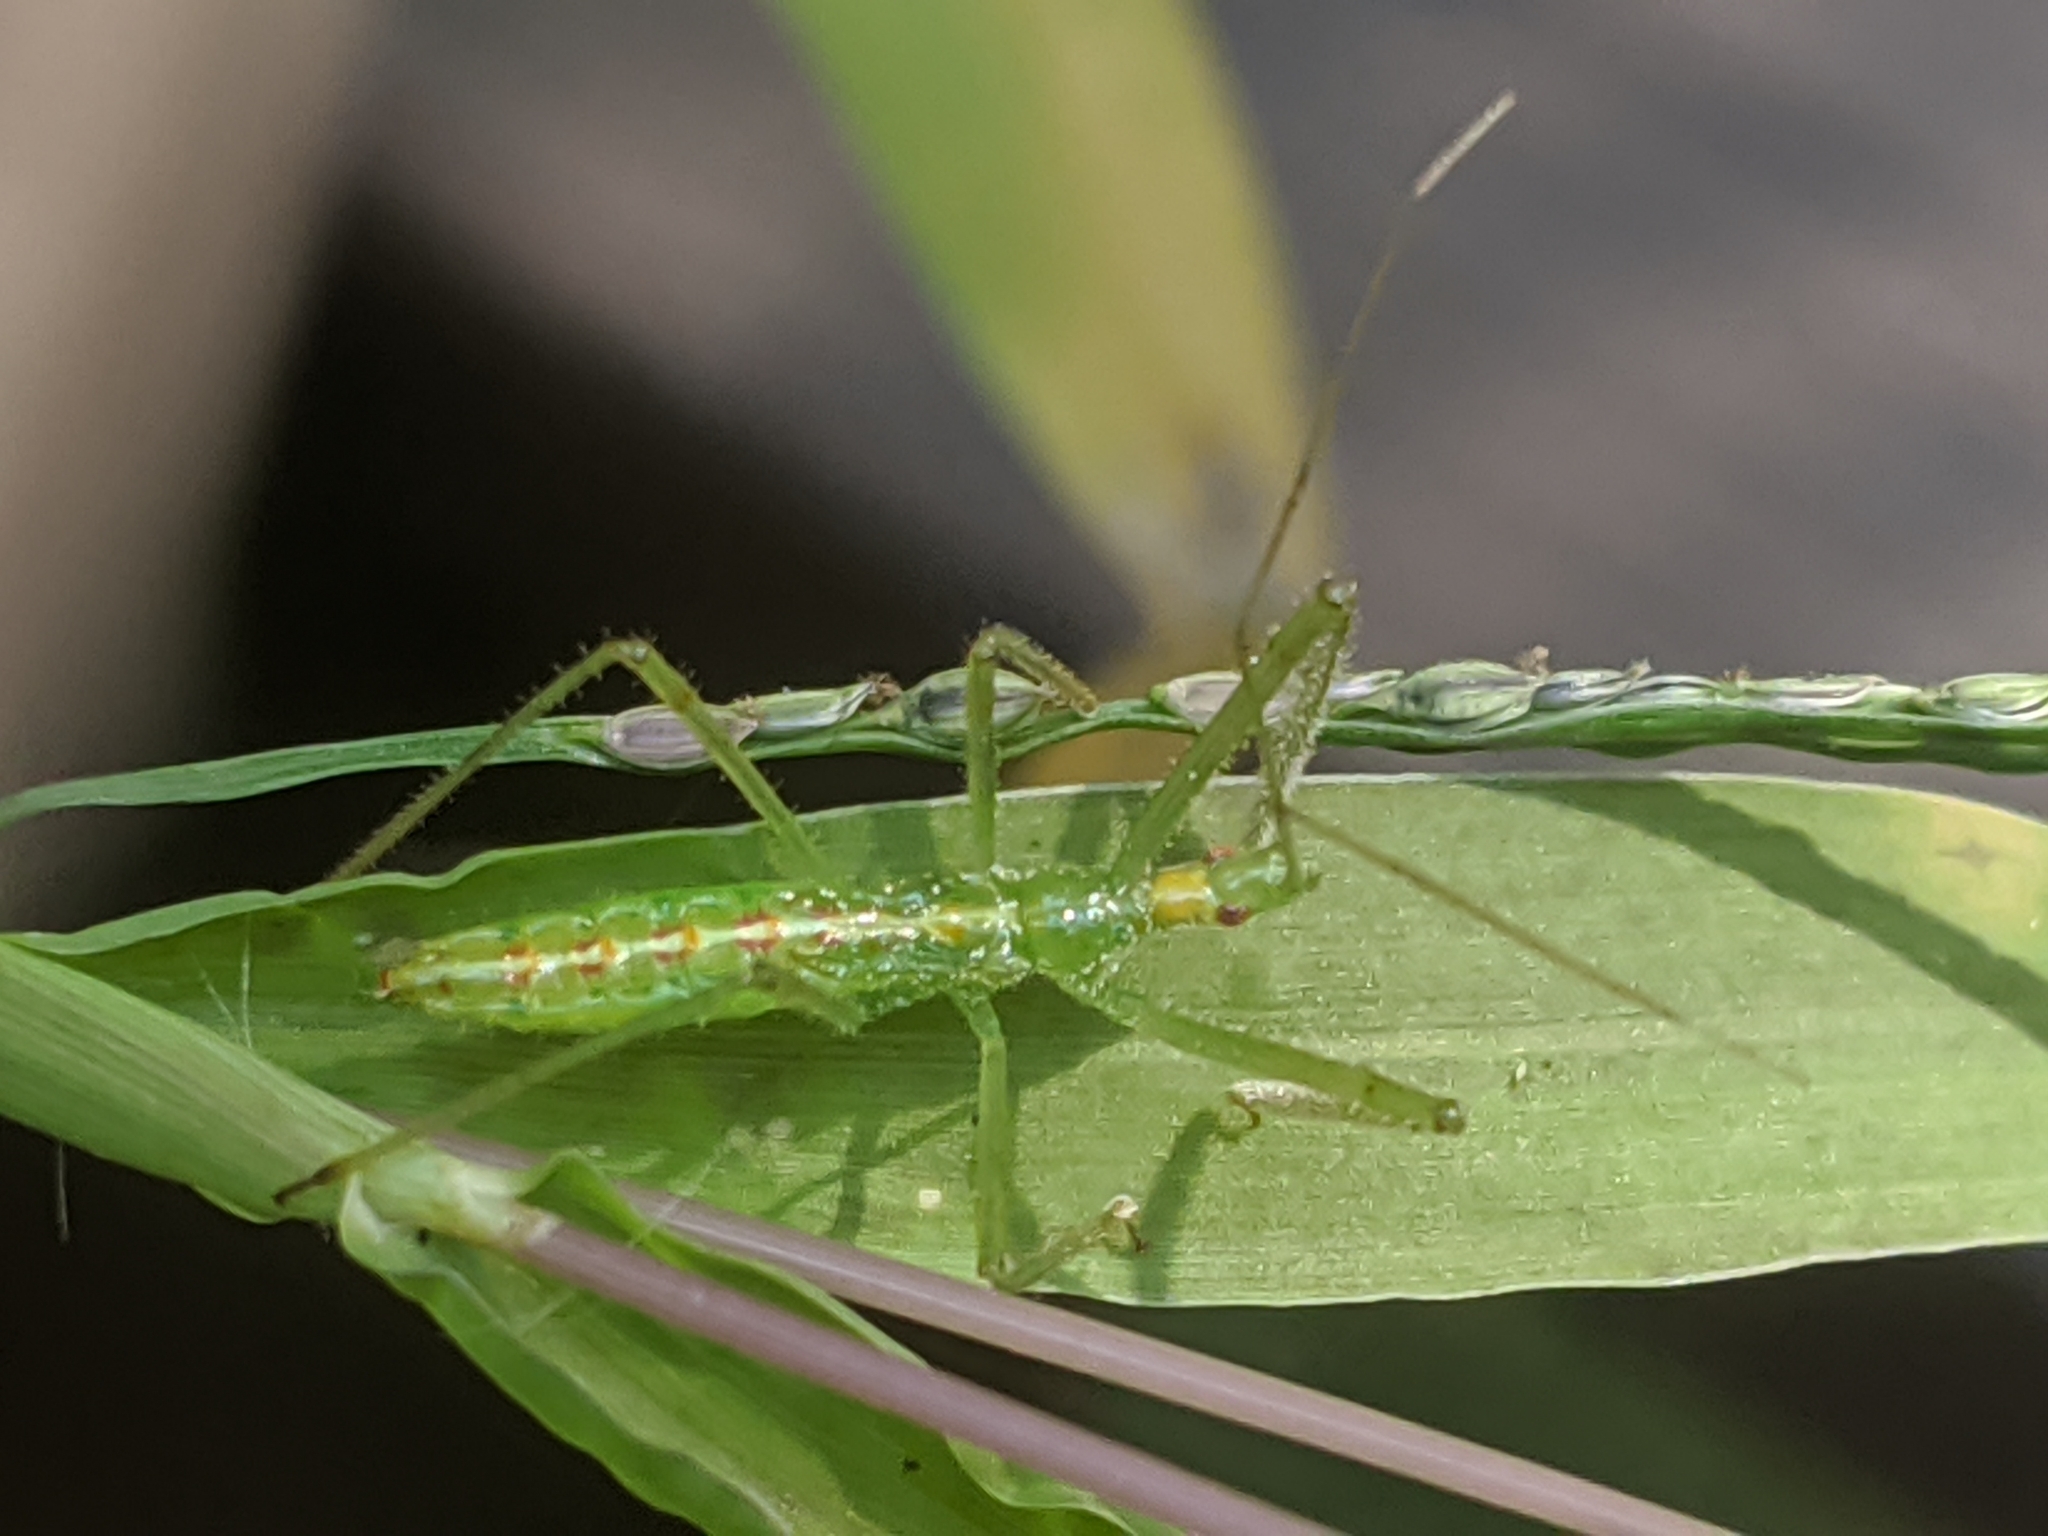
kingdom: Animalia
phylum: Arthropoda
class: Insecta
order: Hemiptera
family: Reduviidae
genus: Zelus
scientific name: Zelus luridus
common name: Pale green assassin bug
